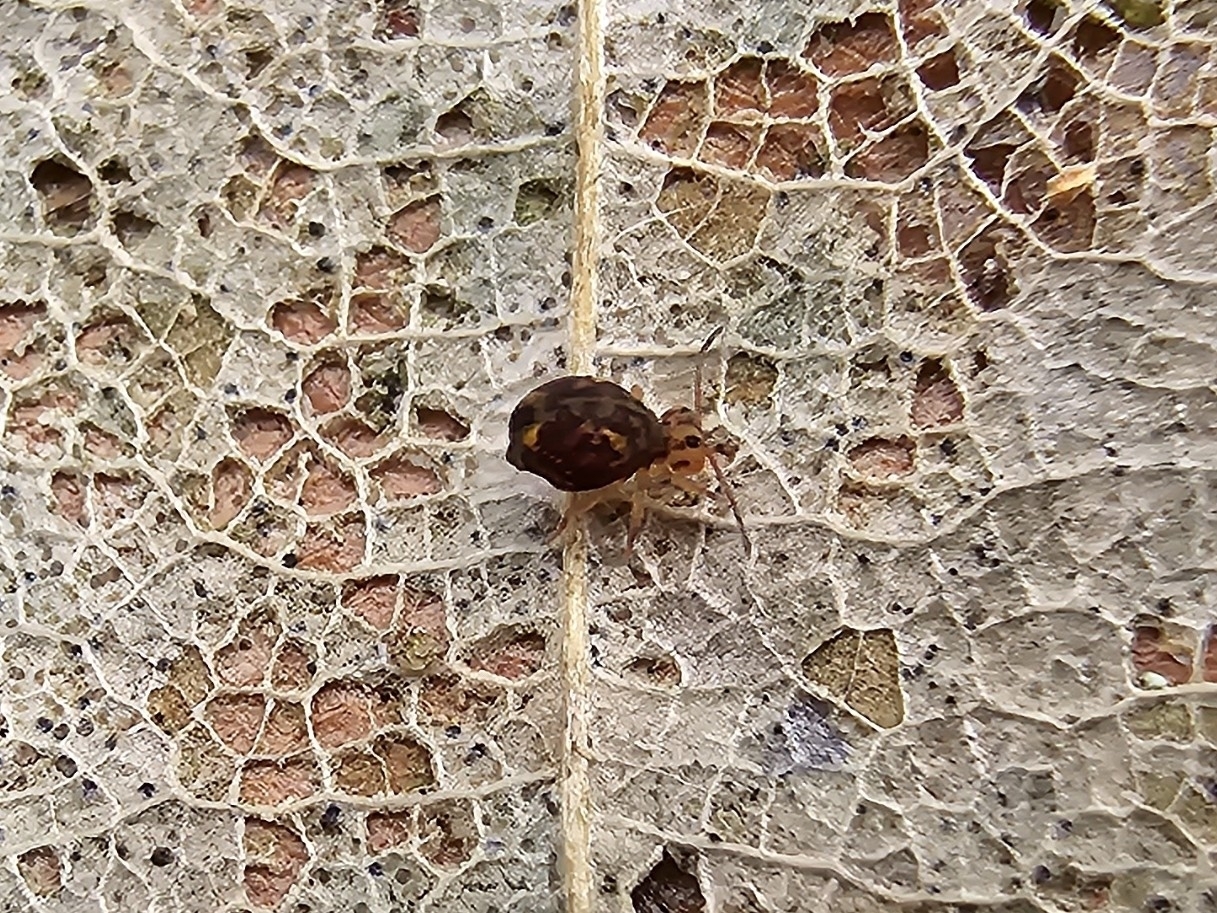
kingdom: Animalia
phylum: Arthropoda
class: Collembola
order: Symphypleona
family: Dicyrtomidae
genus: Dicyrtomina
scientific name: Dicyrtomina ornata
